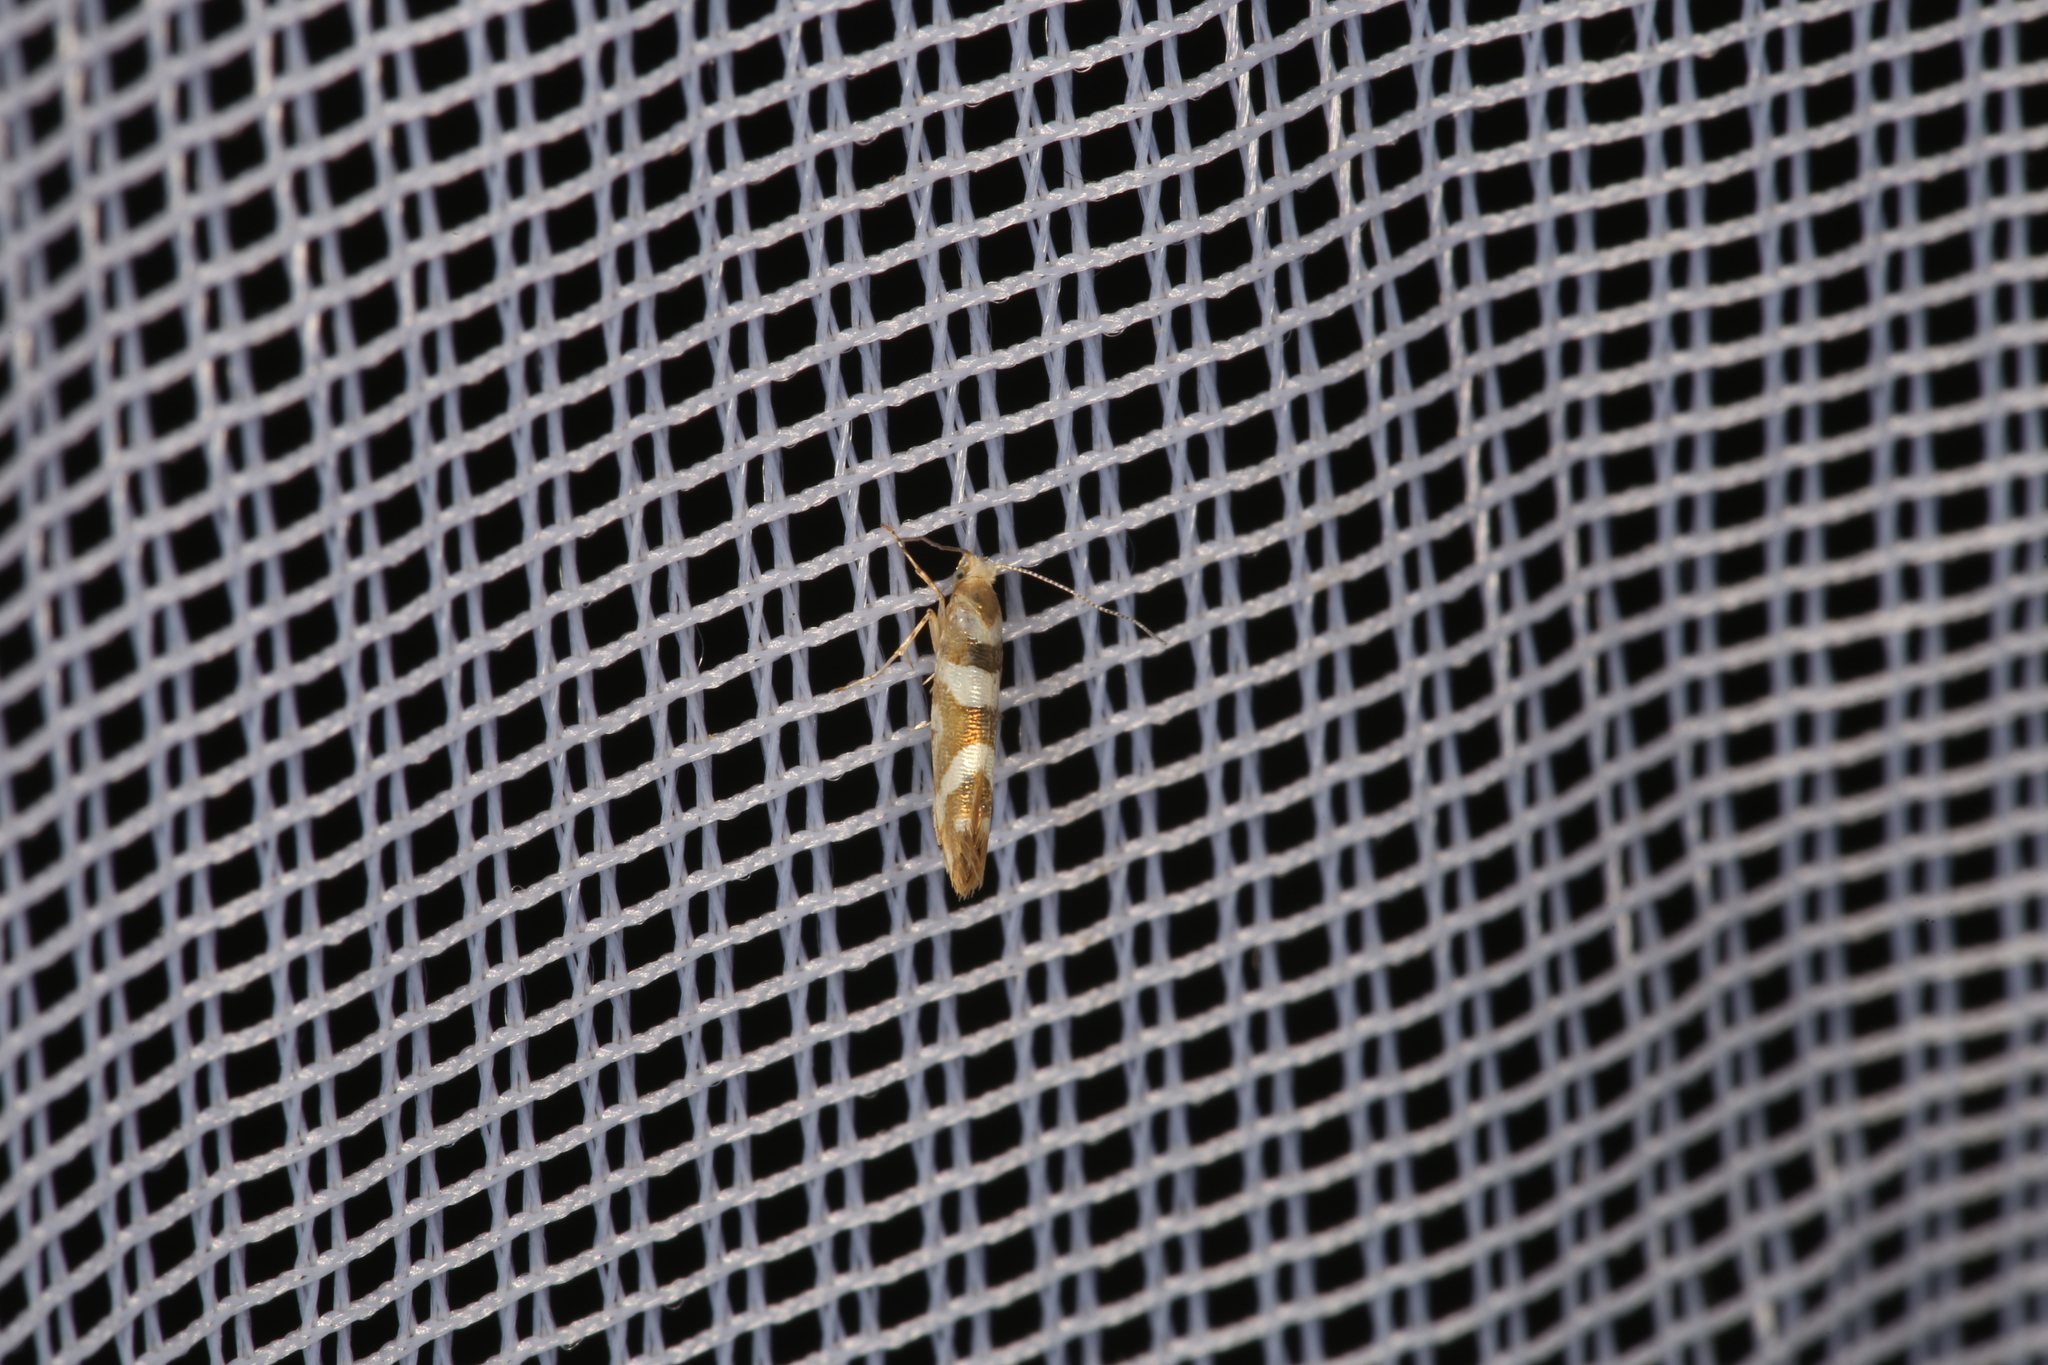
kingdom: Animalia
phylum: Arthropoda
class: Insecta
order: Lepidoptera
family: Argyresthiidae
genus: Argyresthia
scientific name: Argyresthia goedartella
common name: Golden argent
